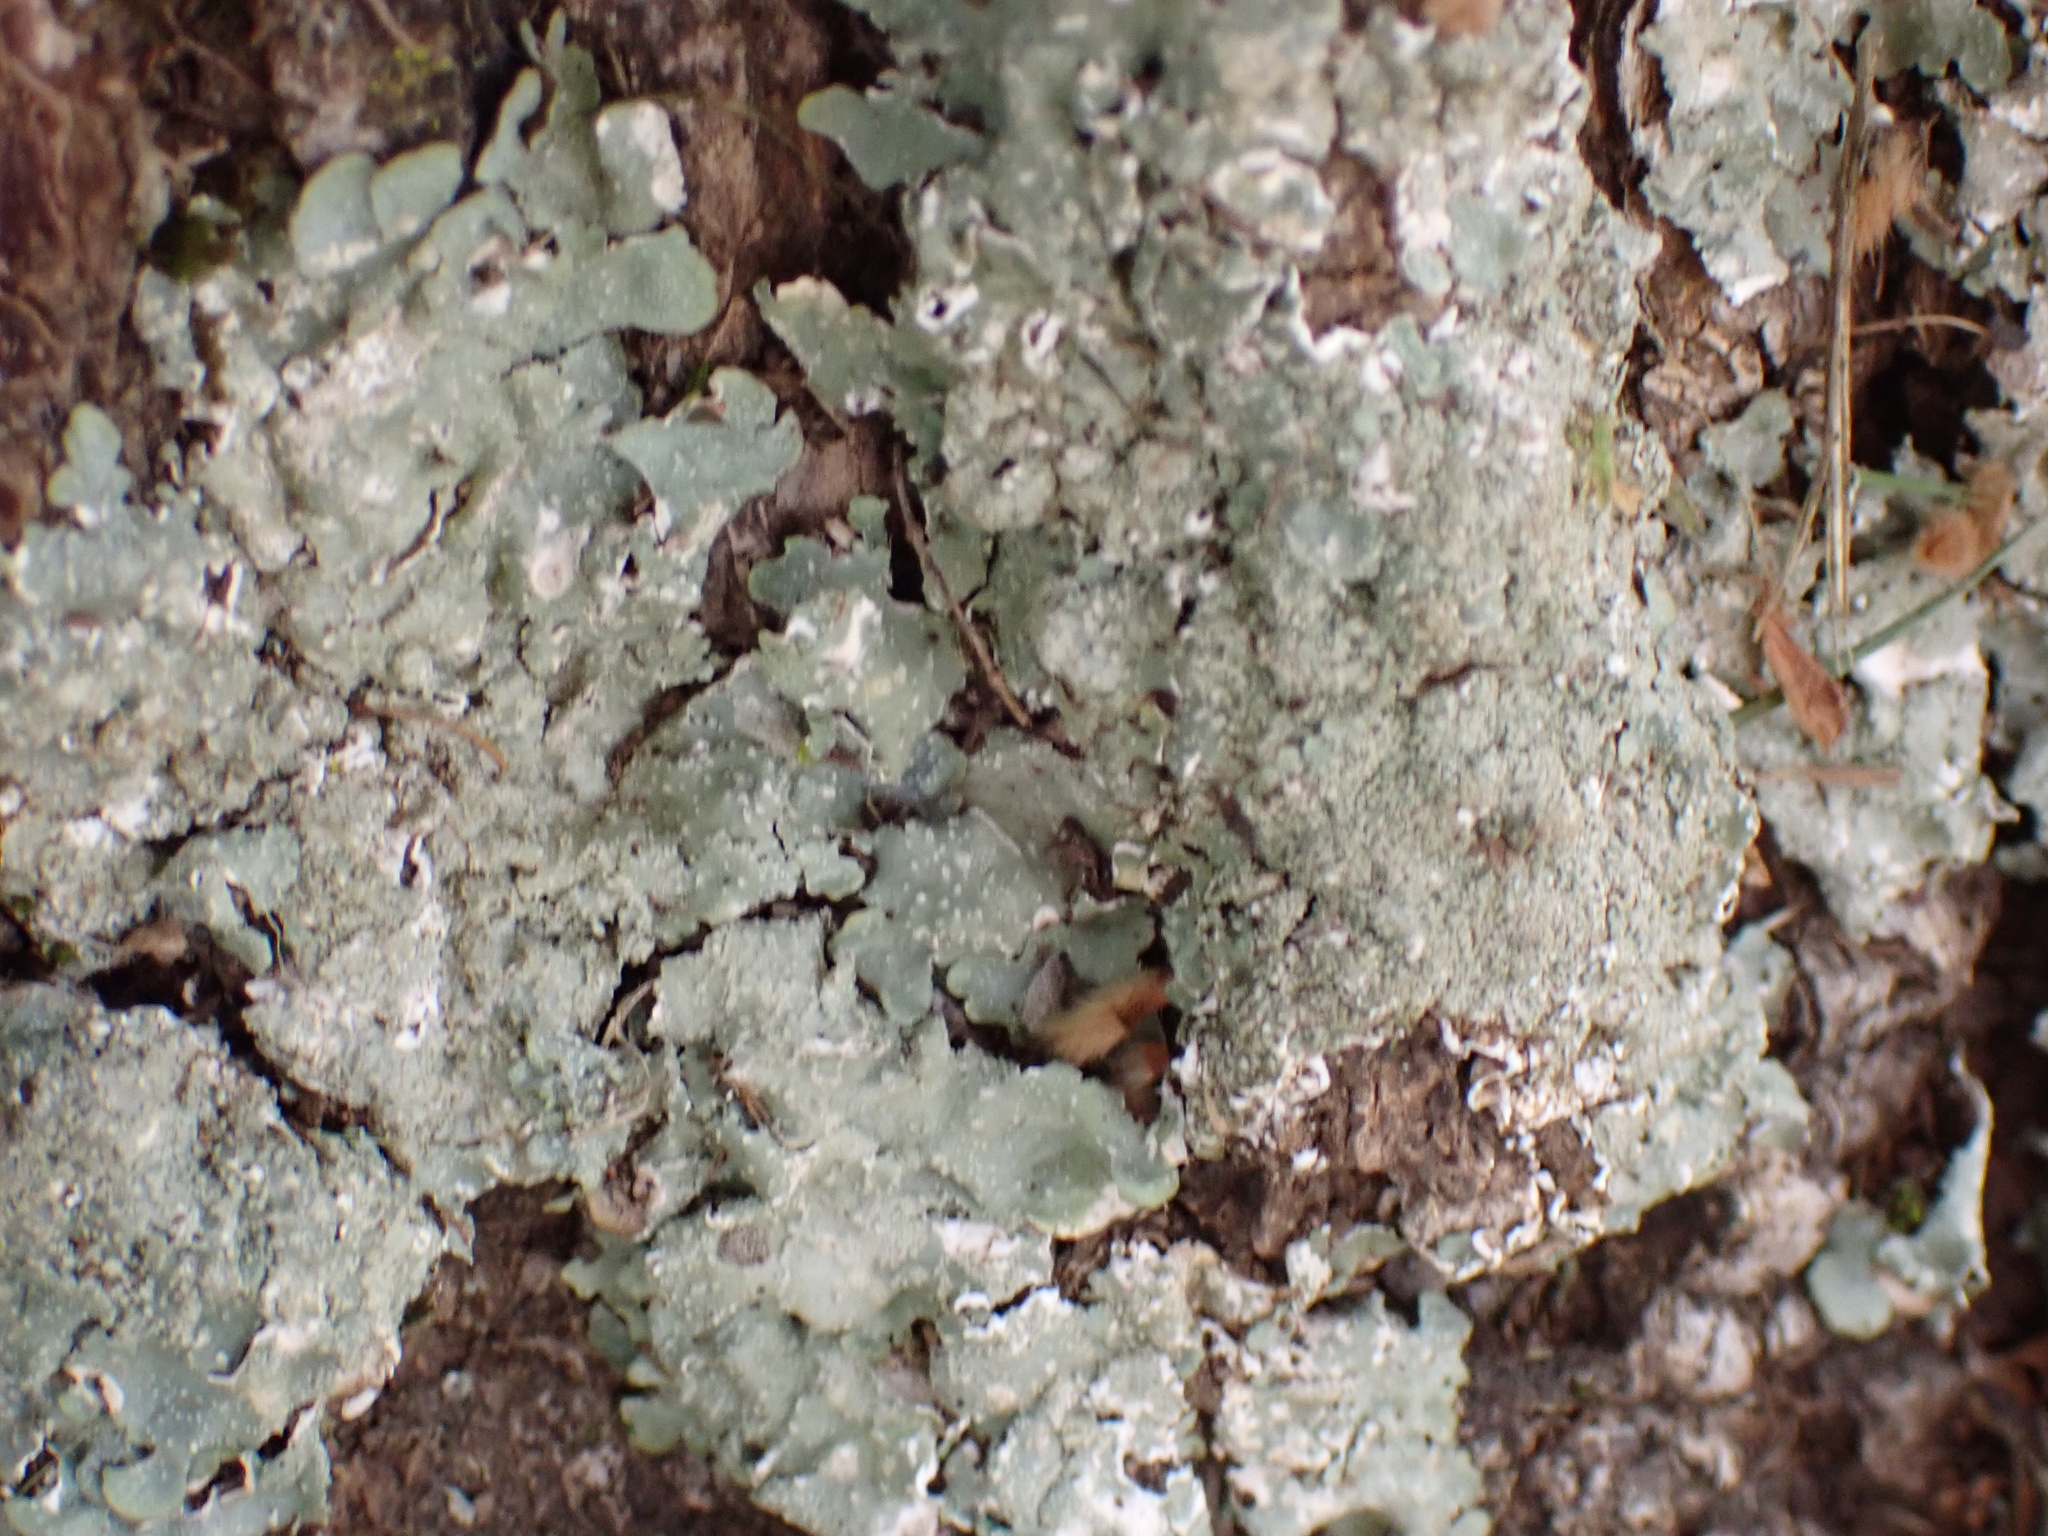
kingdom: Fungi
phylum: Ascomycota
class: Lecanoromycetes
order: Lecanorales
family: Parmeliaceae
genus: Punctelia
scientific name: Punctelia missouriensis
